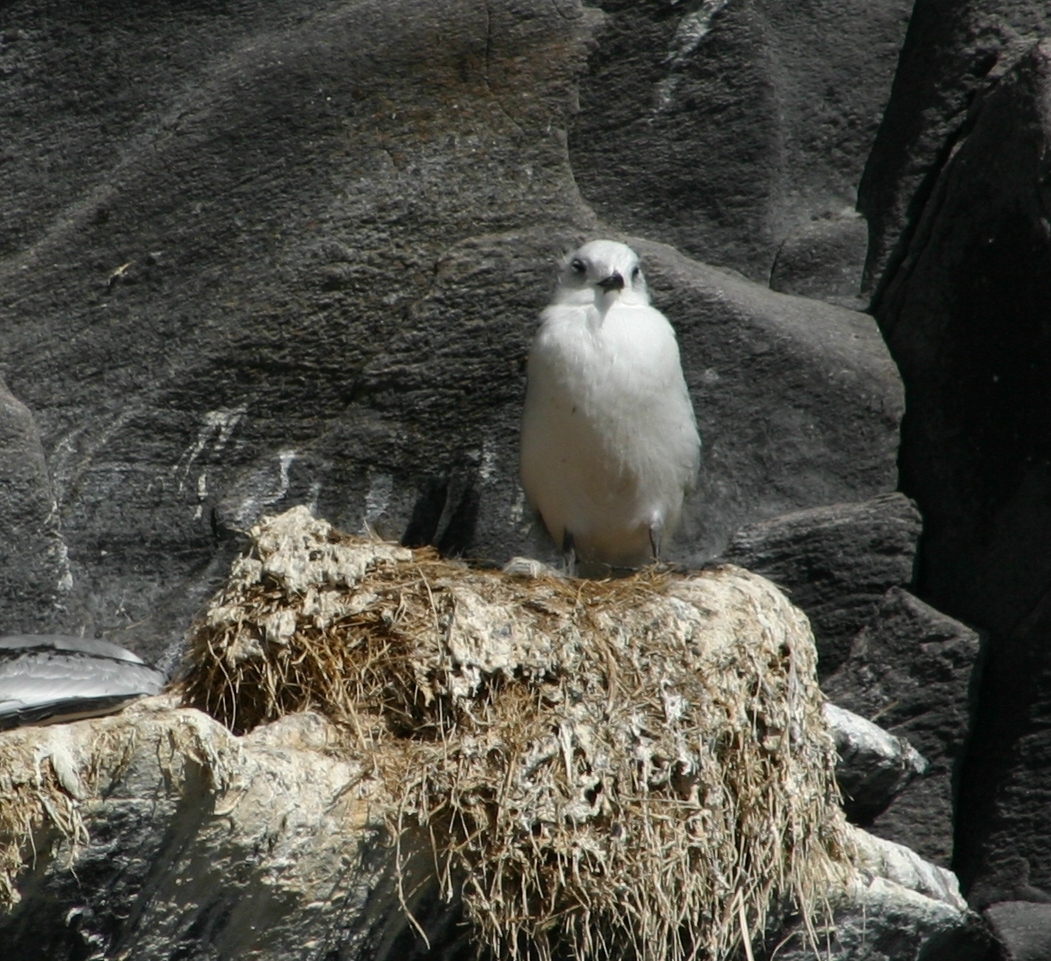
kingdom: Animalia
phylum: Chordata
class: Aves
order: Charadriiformes
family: Laridae
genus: Rissa
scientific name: Rissa tridactyla
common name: Black-legged kittiwake
